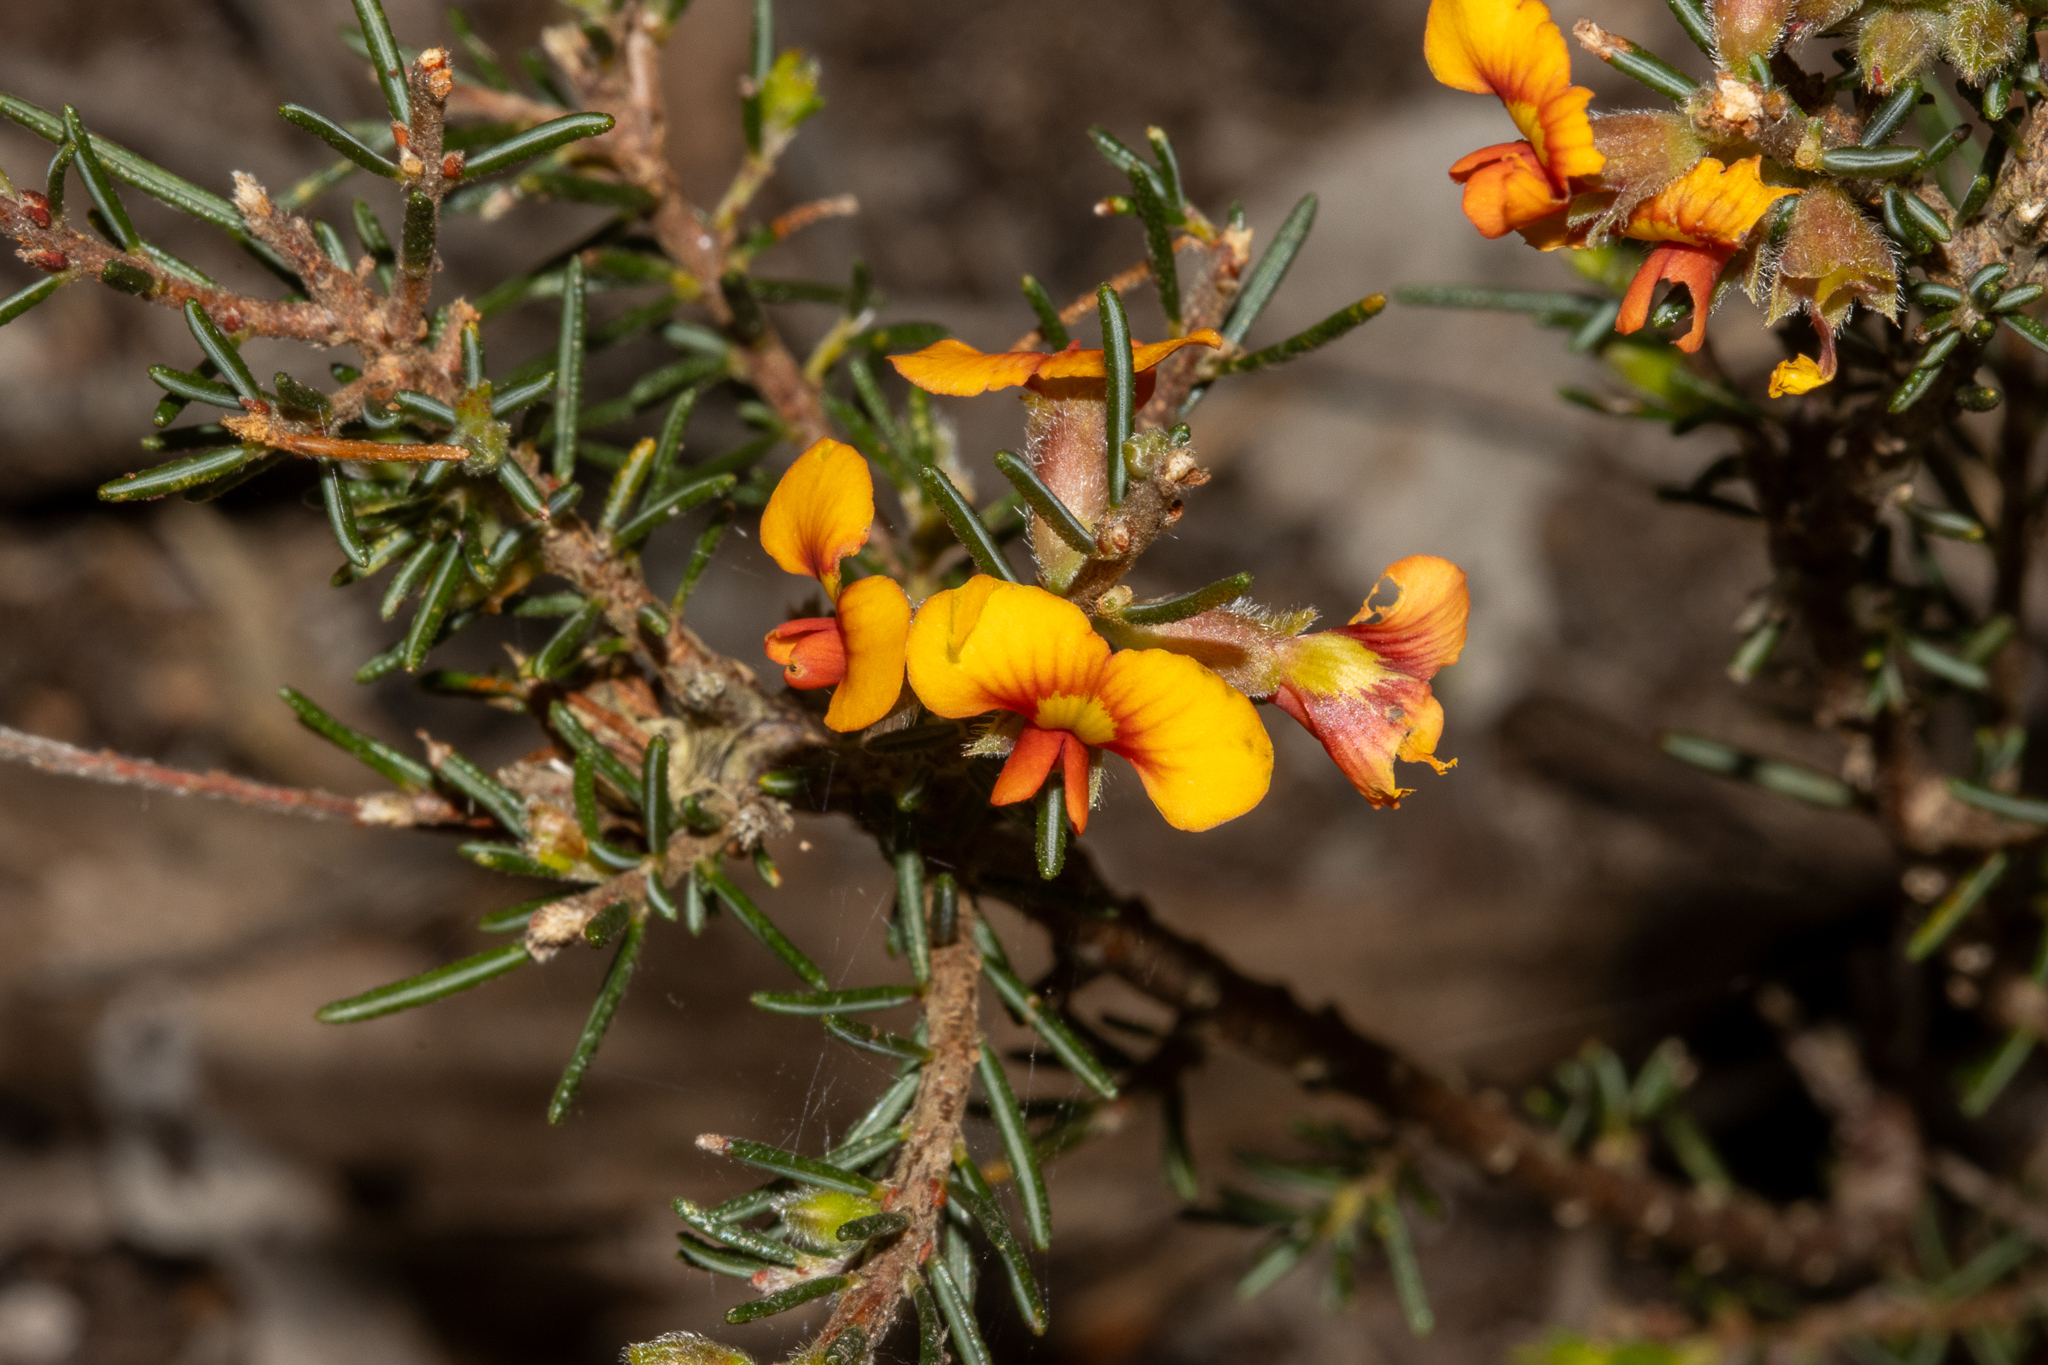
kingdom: Plantae
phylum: Tracheophyta
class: Magnoliopsida
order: Fabales
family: Fabaceae
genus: Dillwynia
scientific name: Dillwynia sericea
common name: Showy parrot-pea
